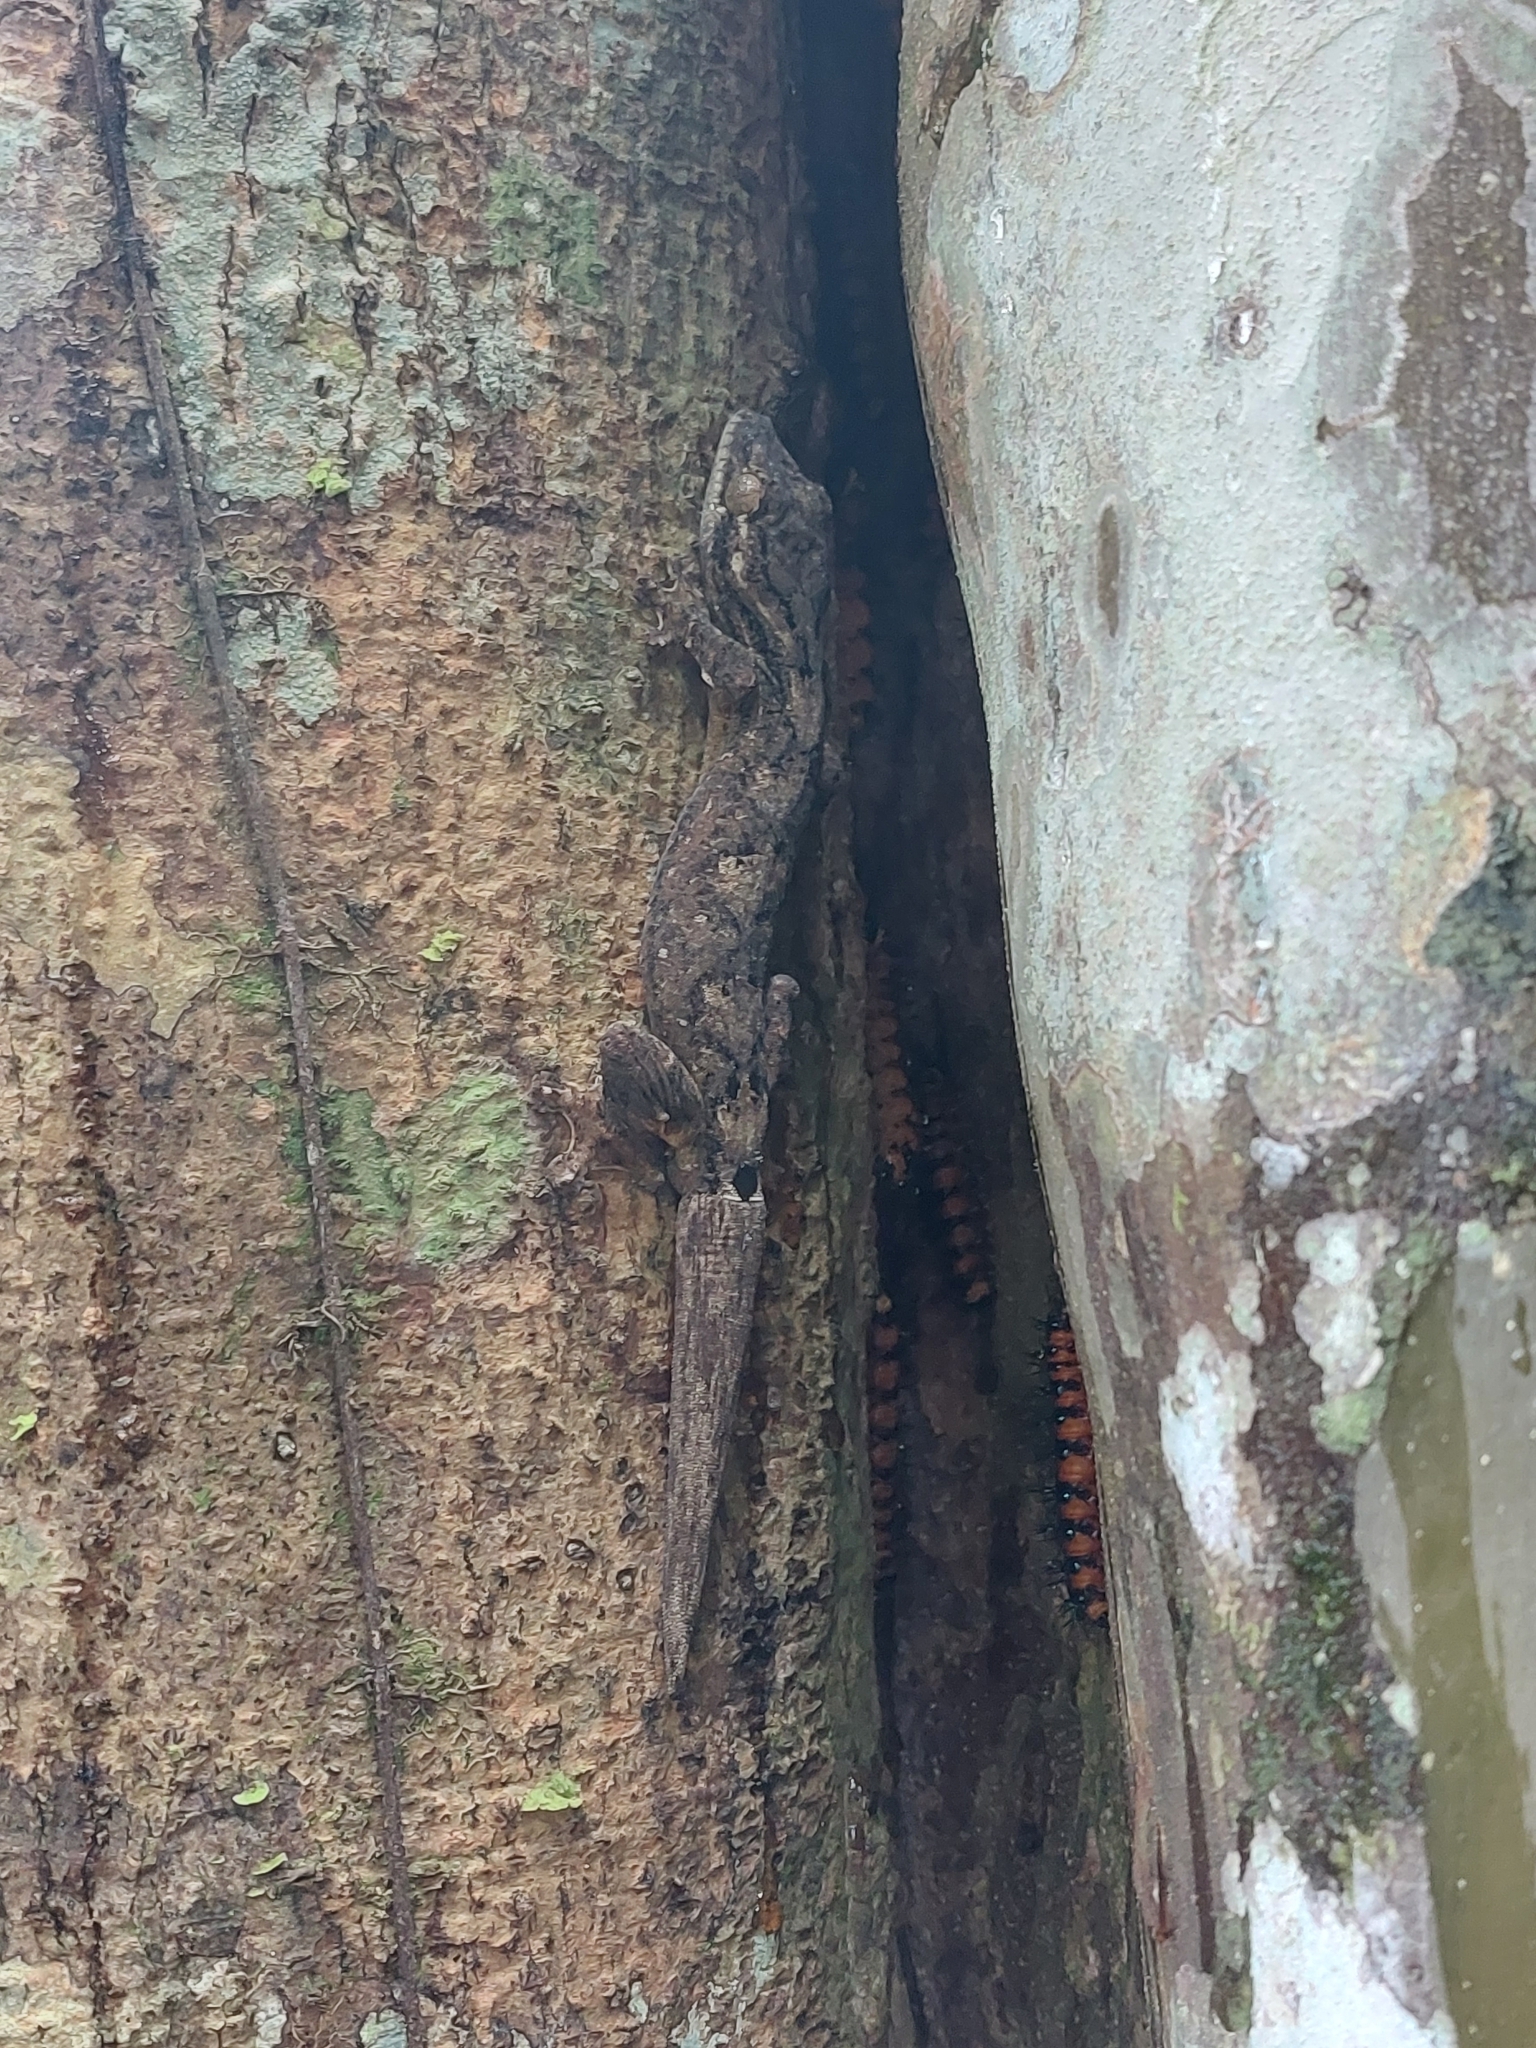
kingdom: Animalia
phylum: Chordata
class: Squamata
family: Phyllodactylidae
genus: Thecadactylus
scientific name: Thecadactylus solimoensis
